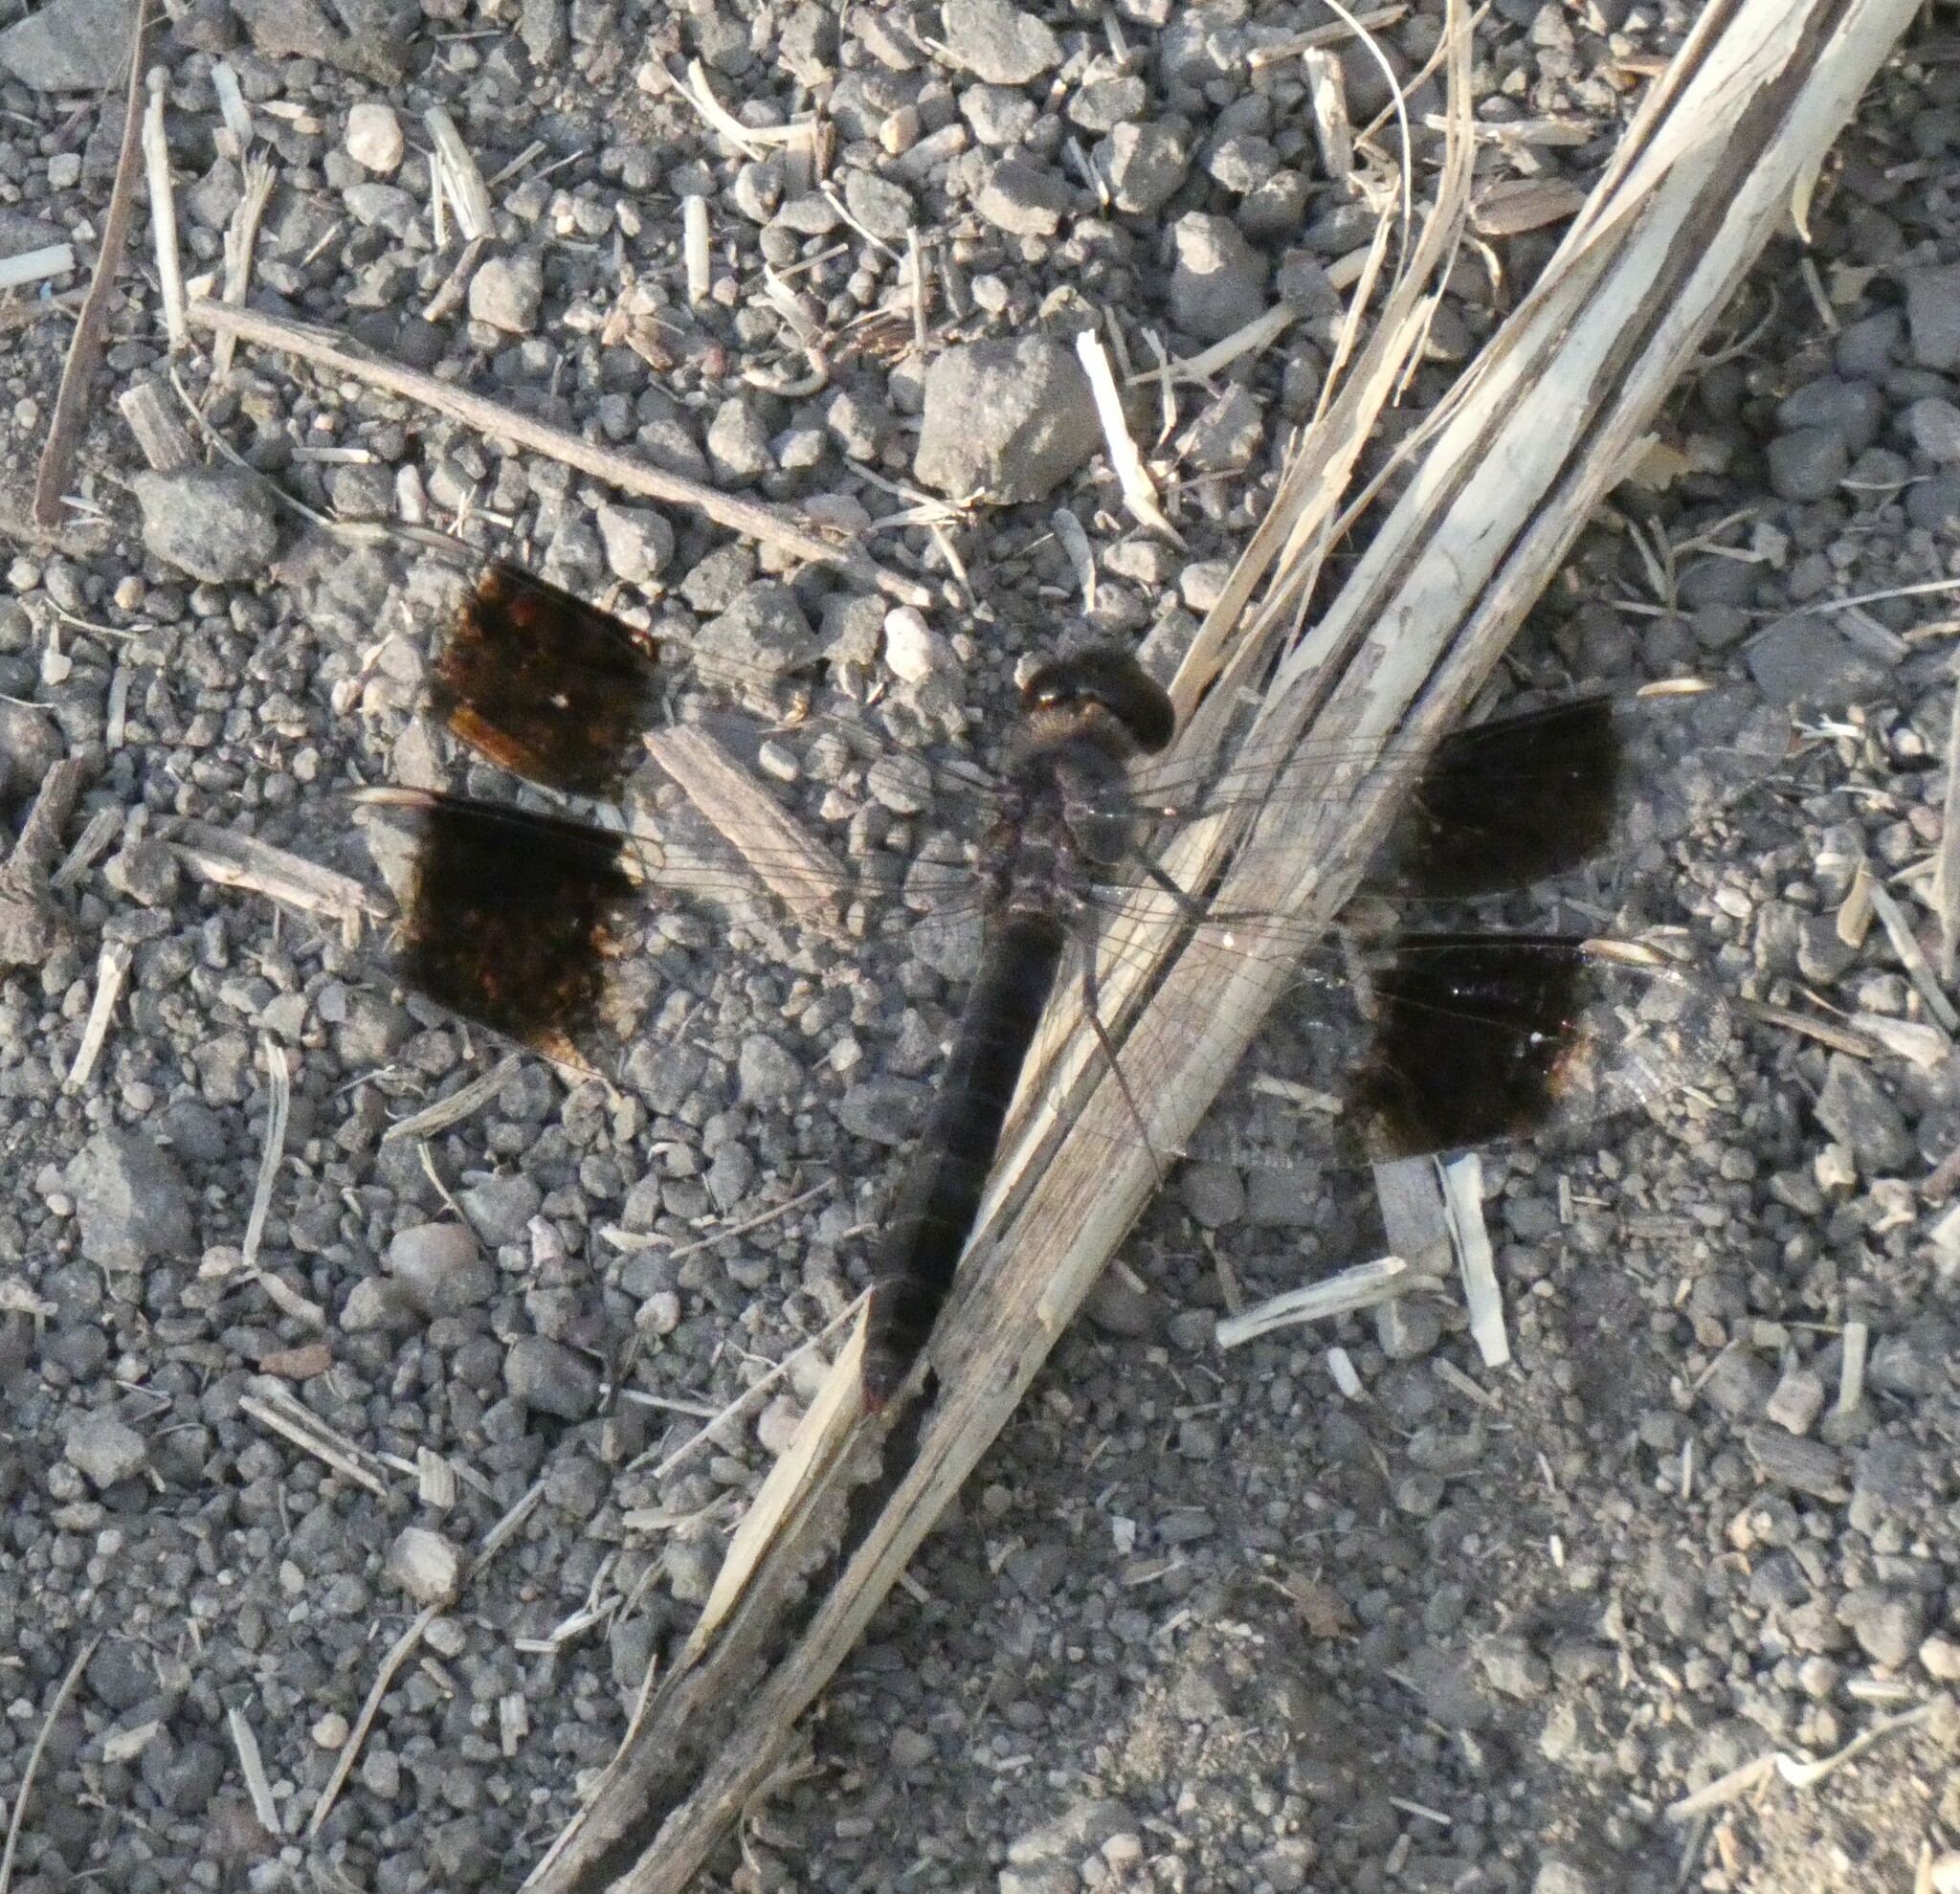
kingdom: Animalia
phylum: Arthropoda
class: Insecta
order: Odonata
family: Libellulidae
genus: Brachythemis
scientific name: Brachythemis leucosticta
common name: Banded groundling
